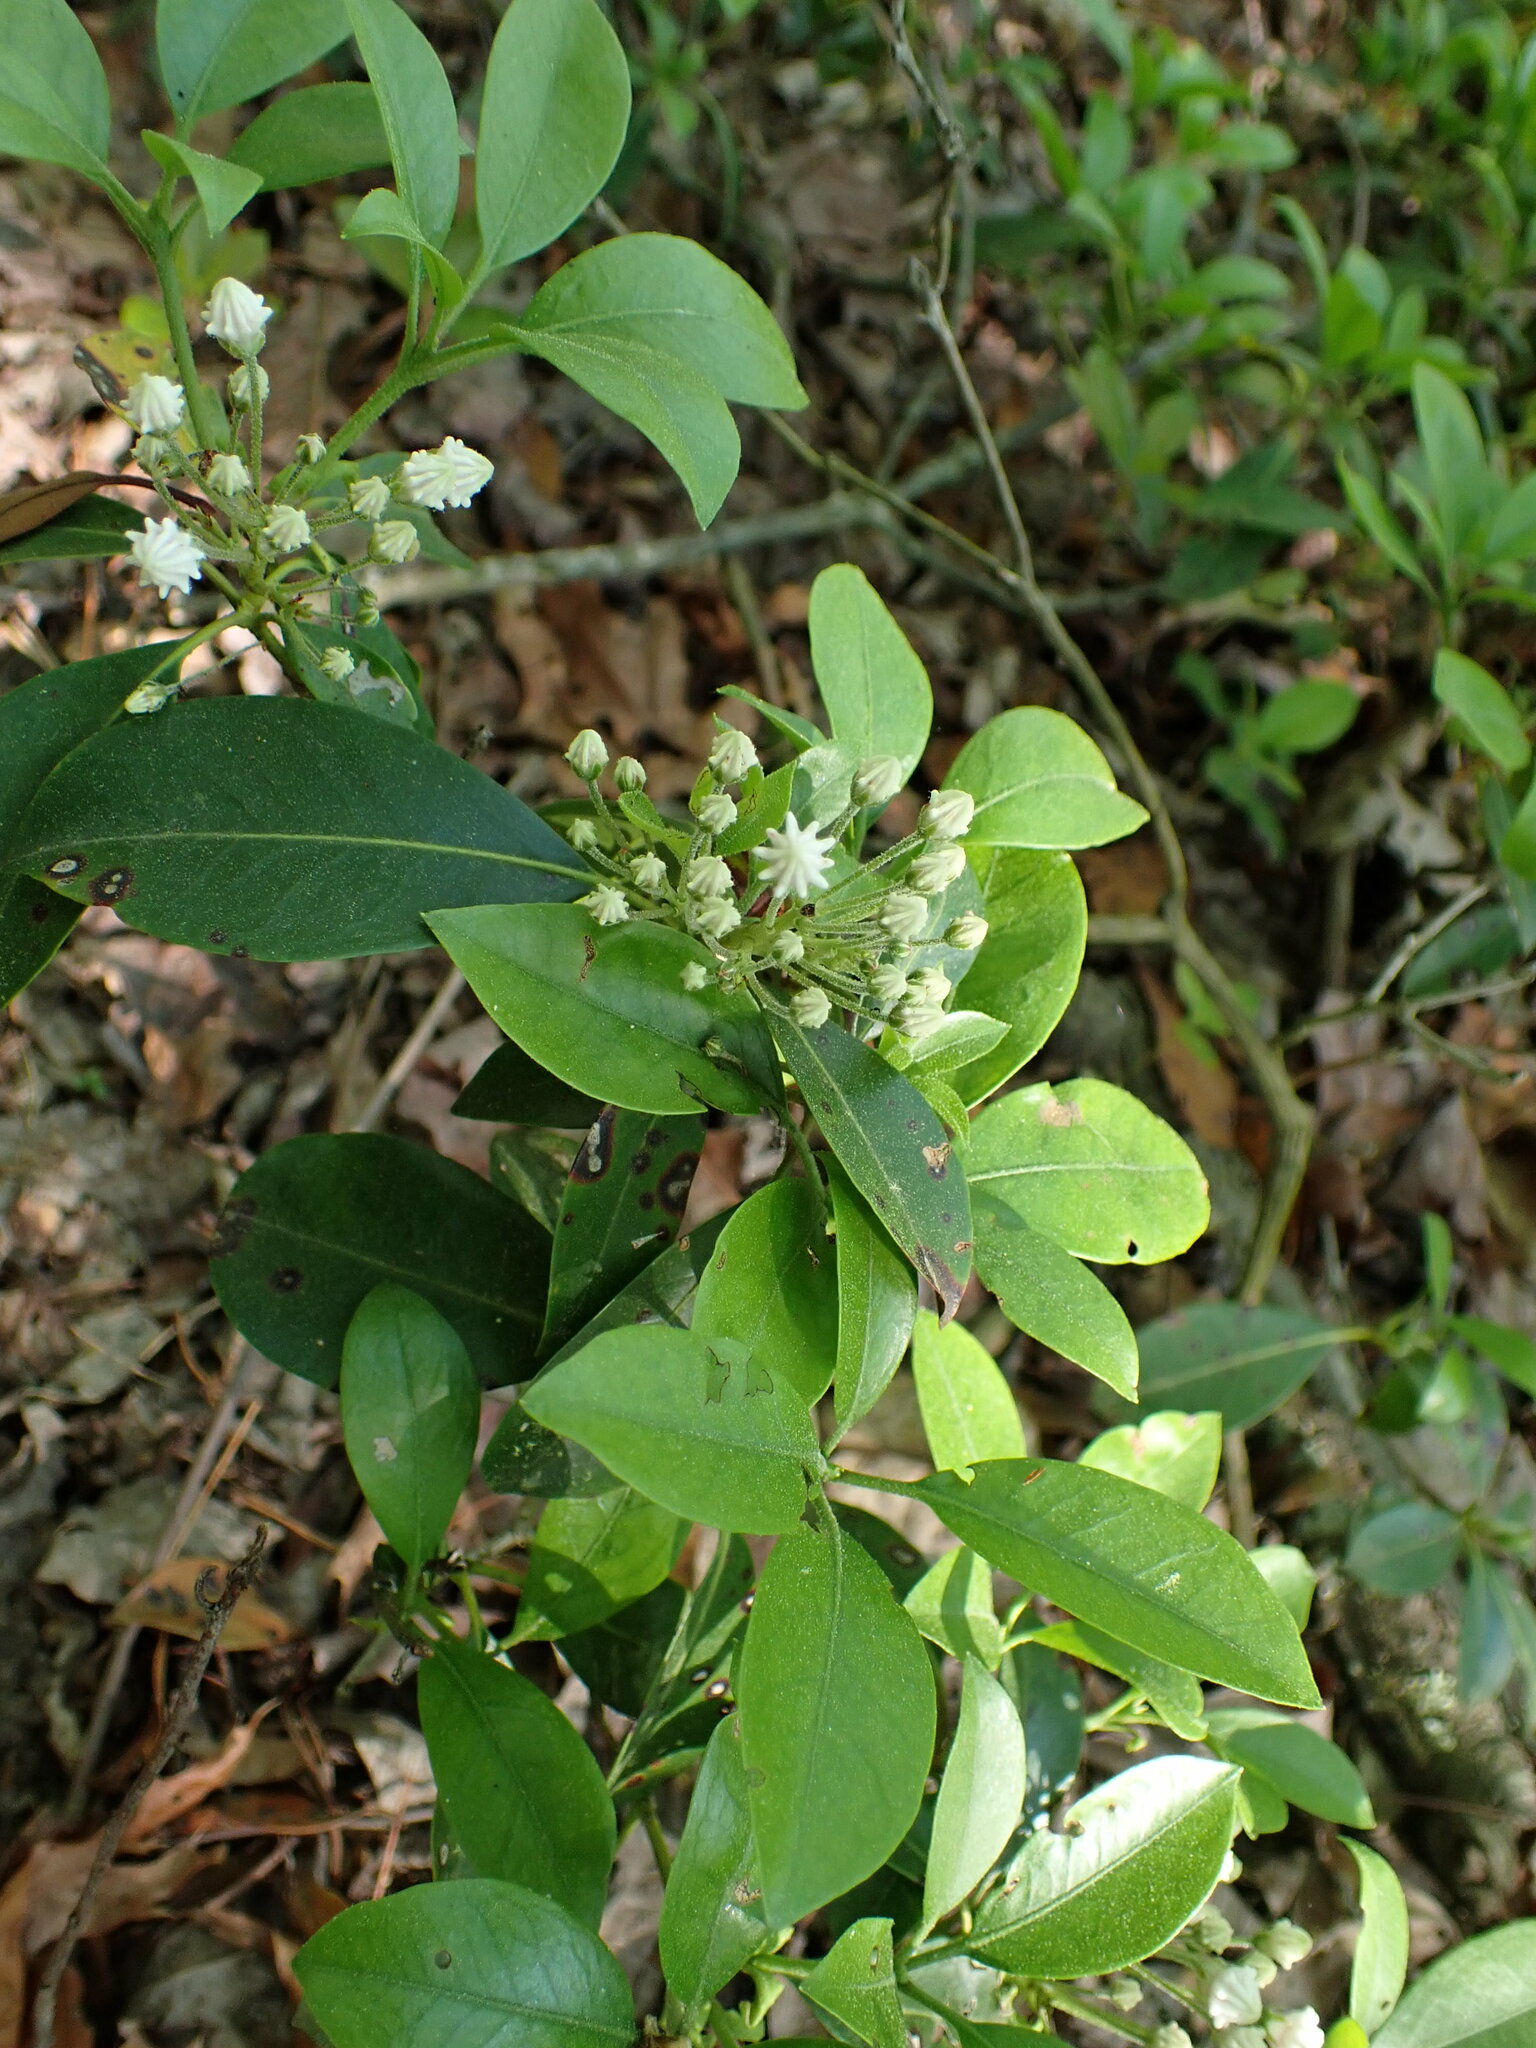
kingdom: Plantae
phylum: Tracheophyta
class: Magnoliopsida
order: Ericales
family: Ericaceae
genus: Kalmia
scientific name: Kalmia latifolia
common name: Mountain-laurel
